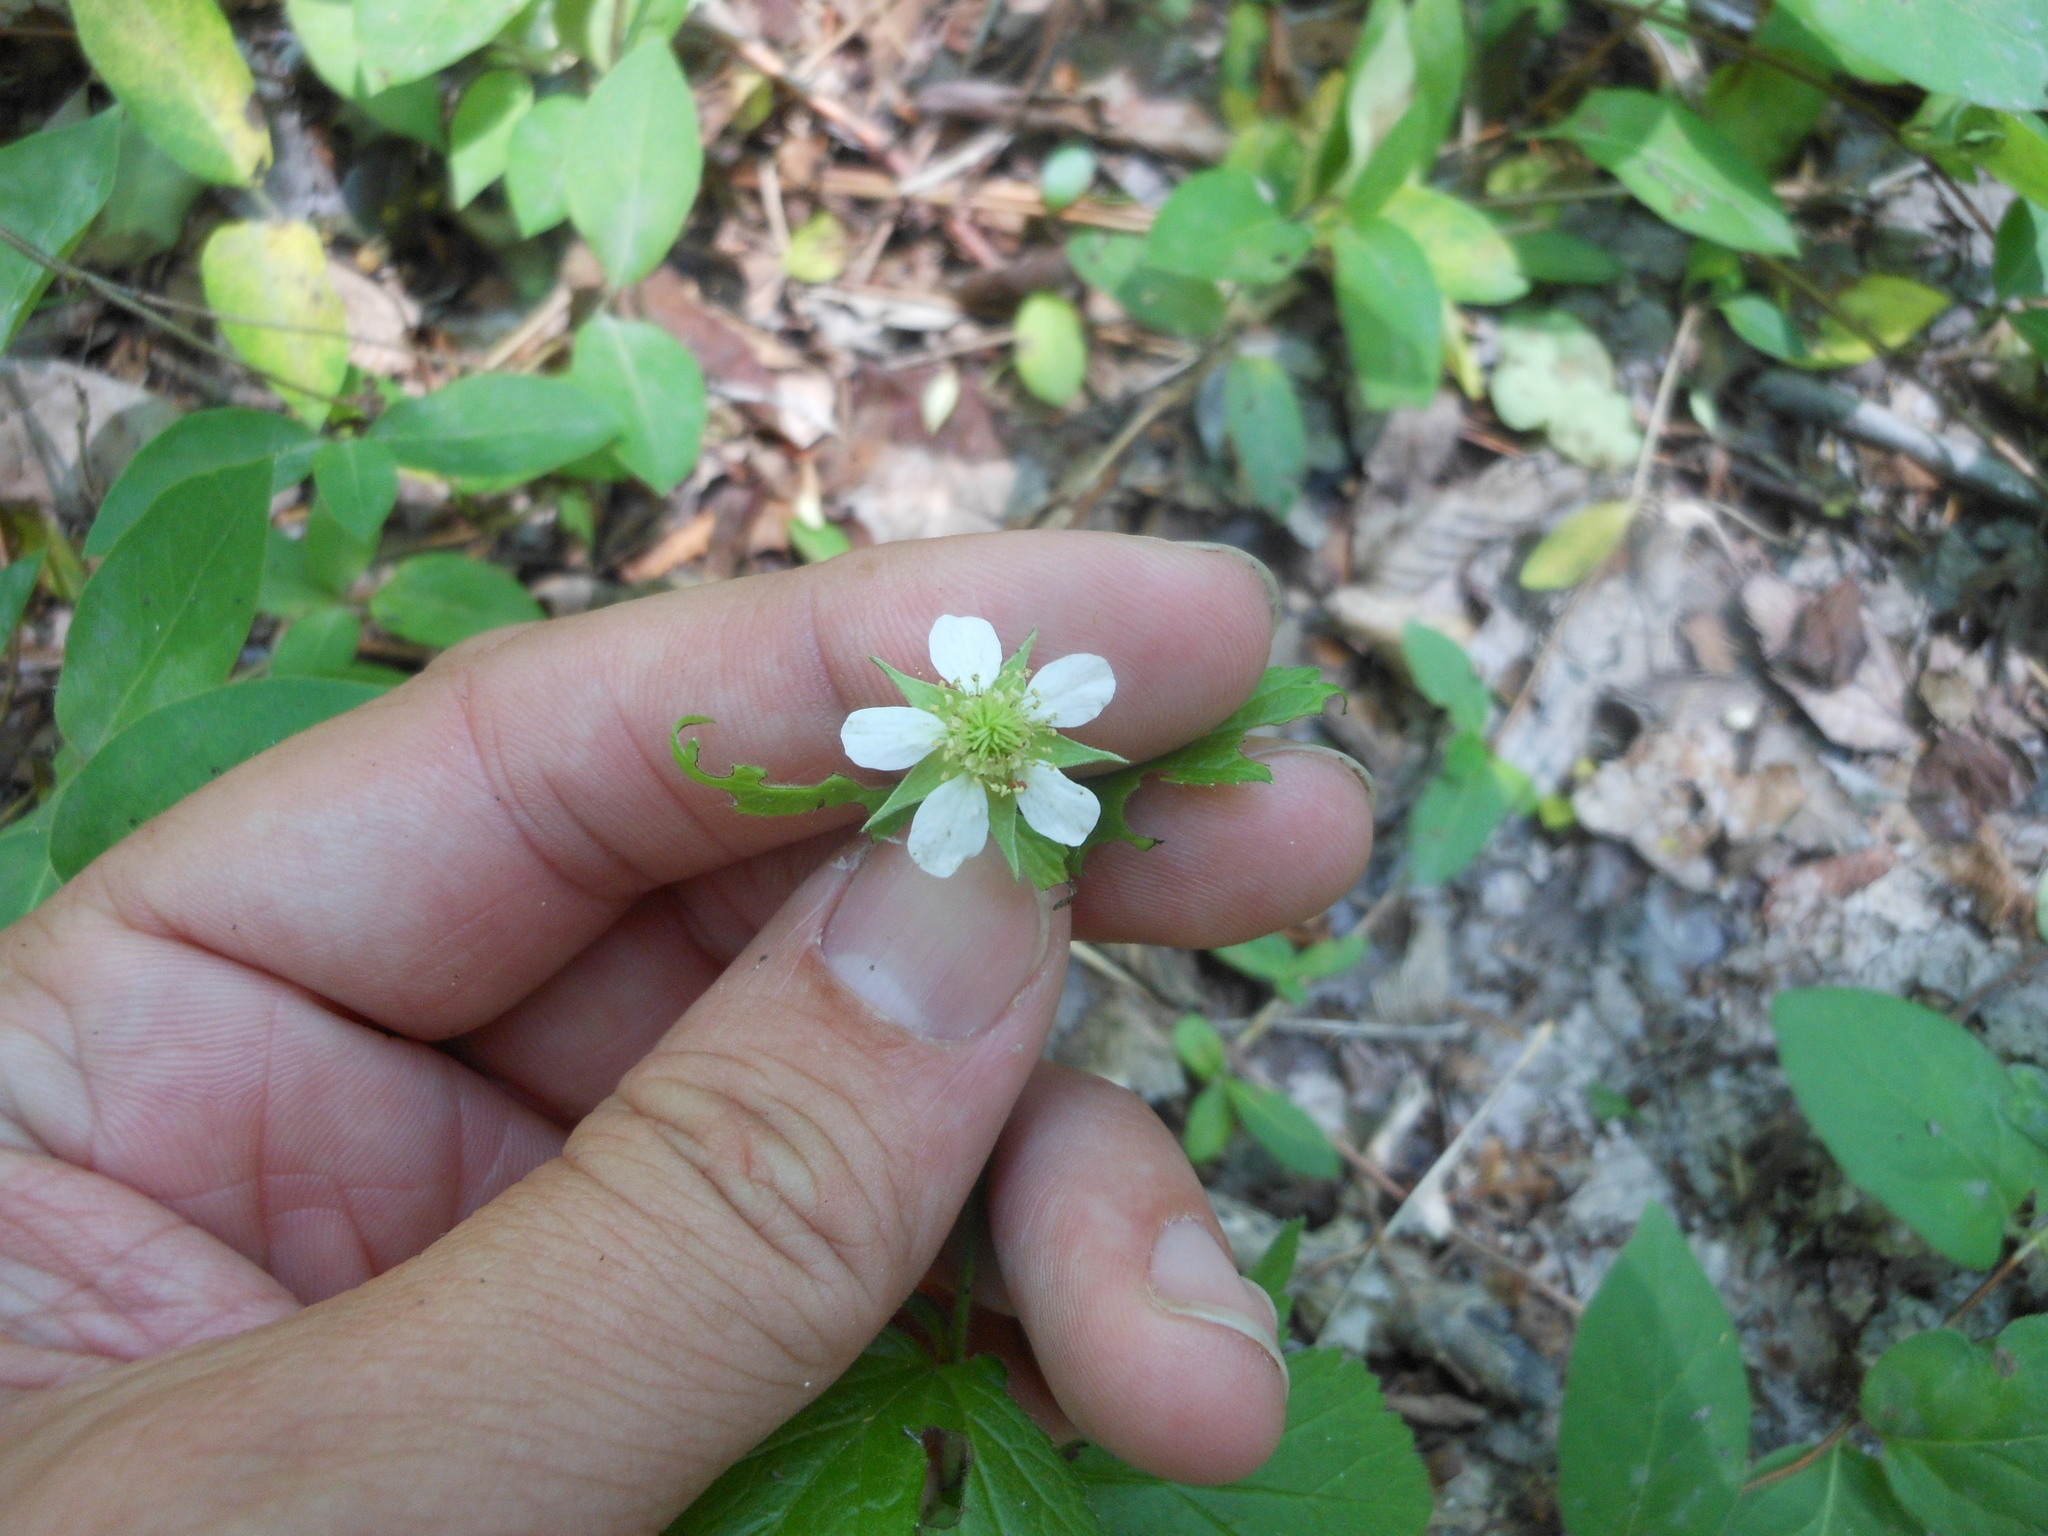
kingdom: Plantae
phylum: Tracheophyta
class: Magnoliopsida
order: Rosales
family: Rosaceae
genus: Geum
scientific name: Geum canadense
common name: White avens
